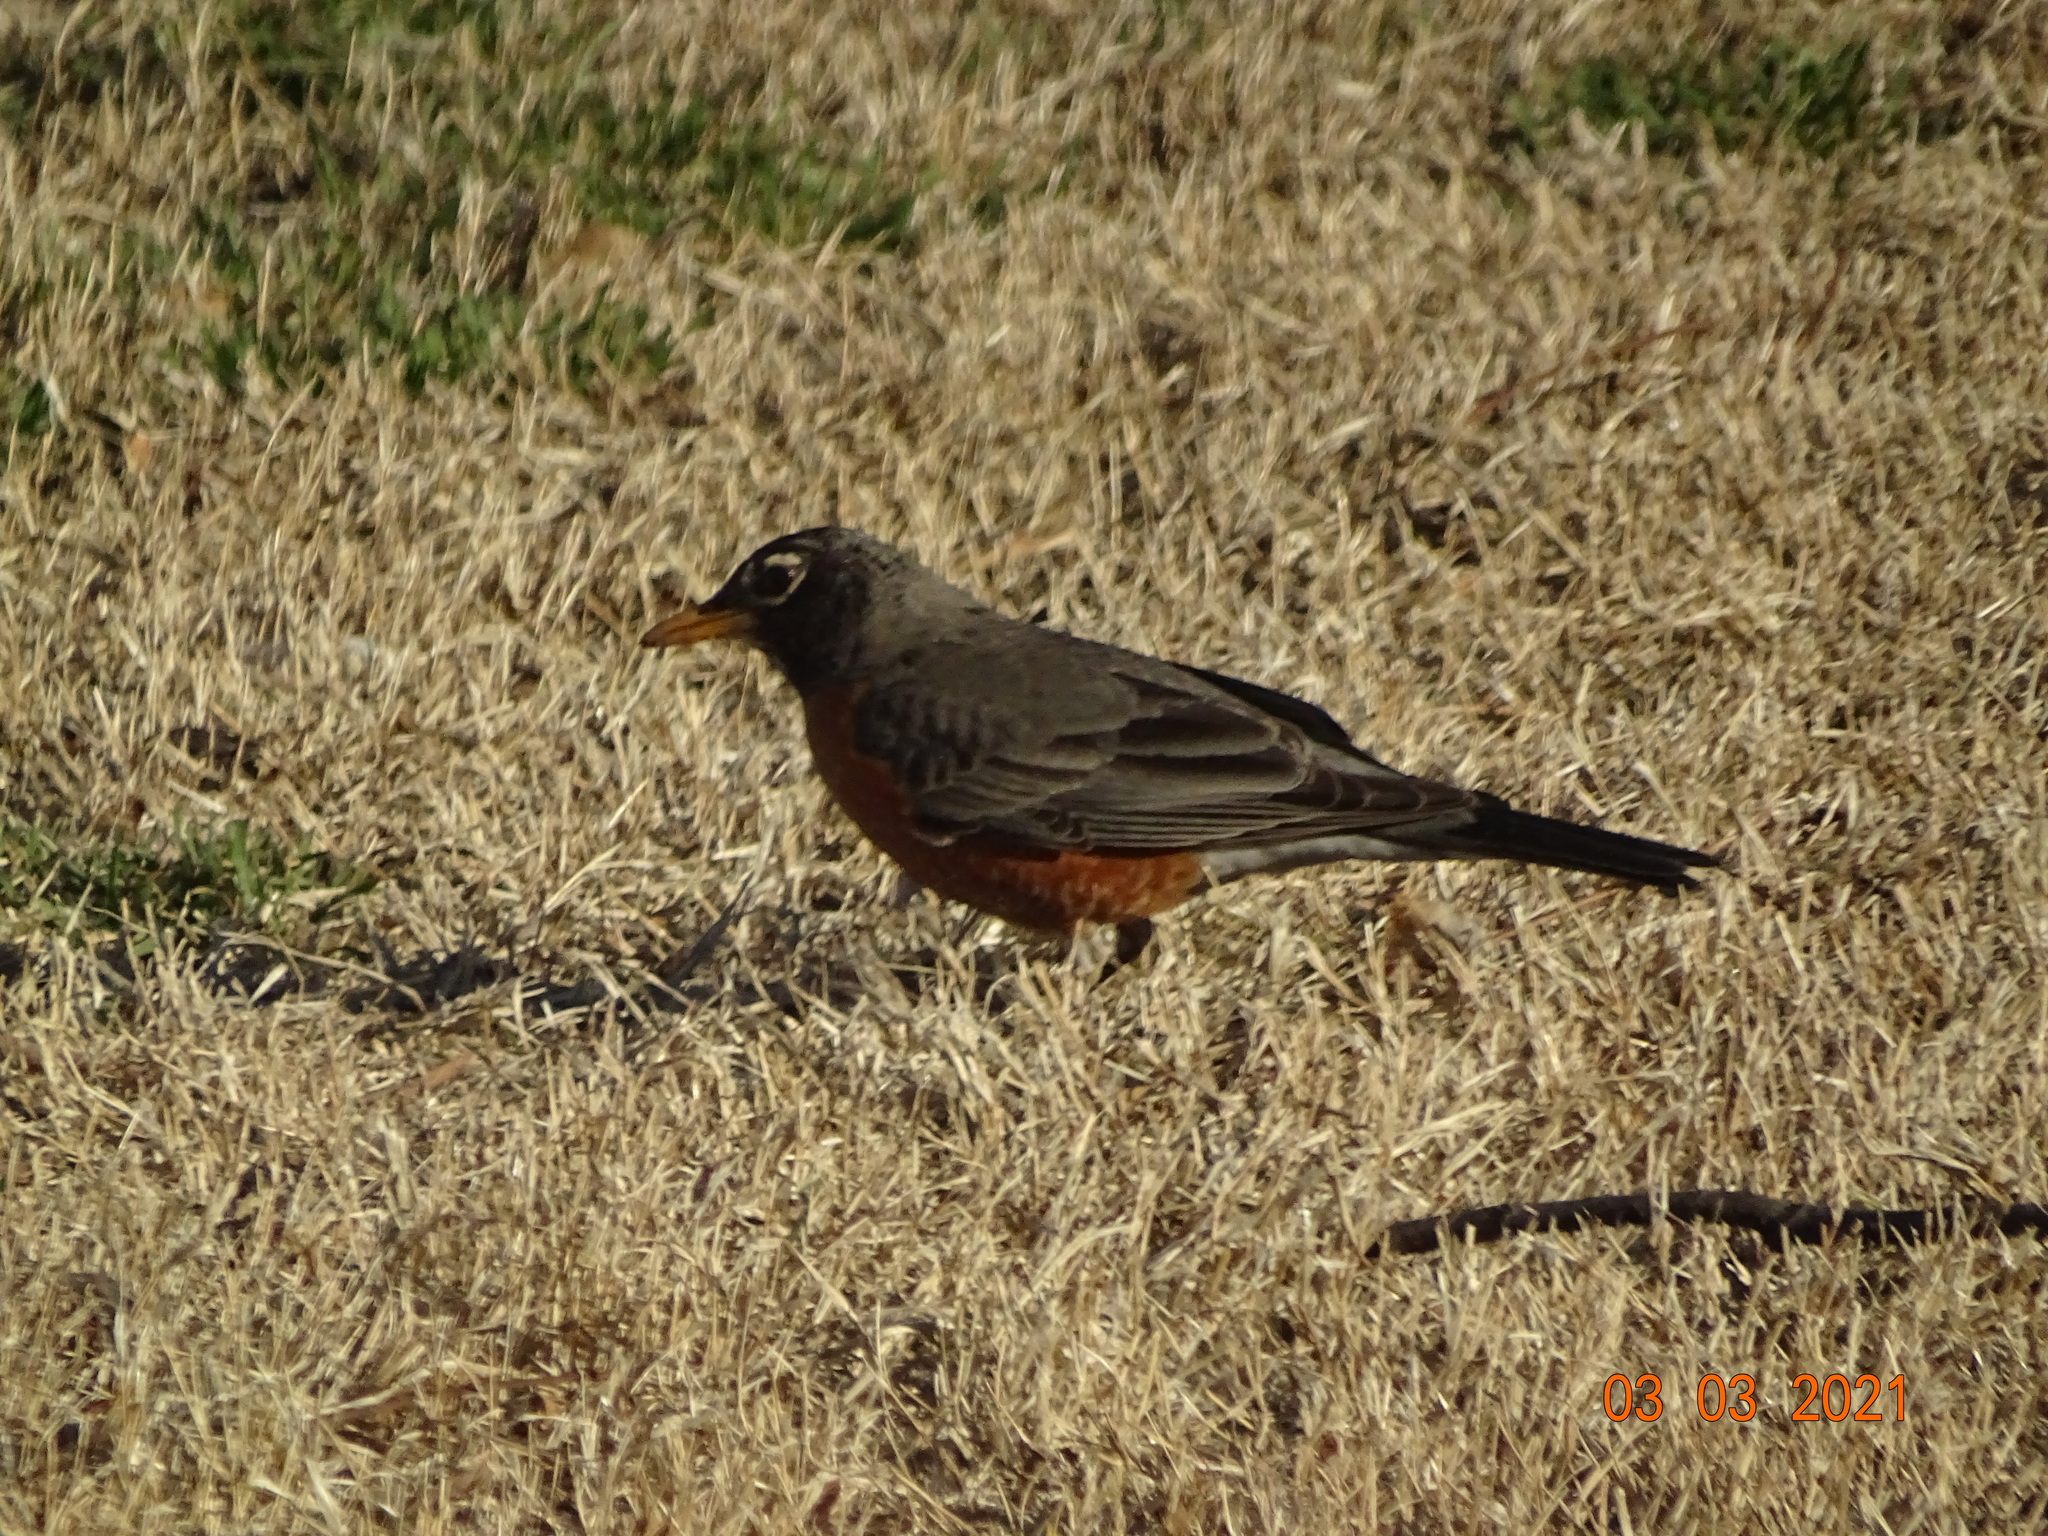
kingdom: Animalia
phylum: Chordata
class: Aves
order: Passeriformes
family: Turdidae
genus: Turdus
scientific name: Turdus migratorius
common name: American robin
